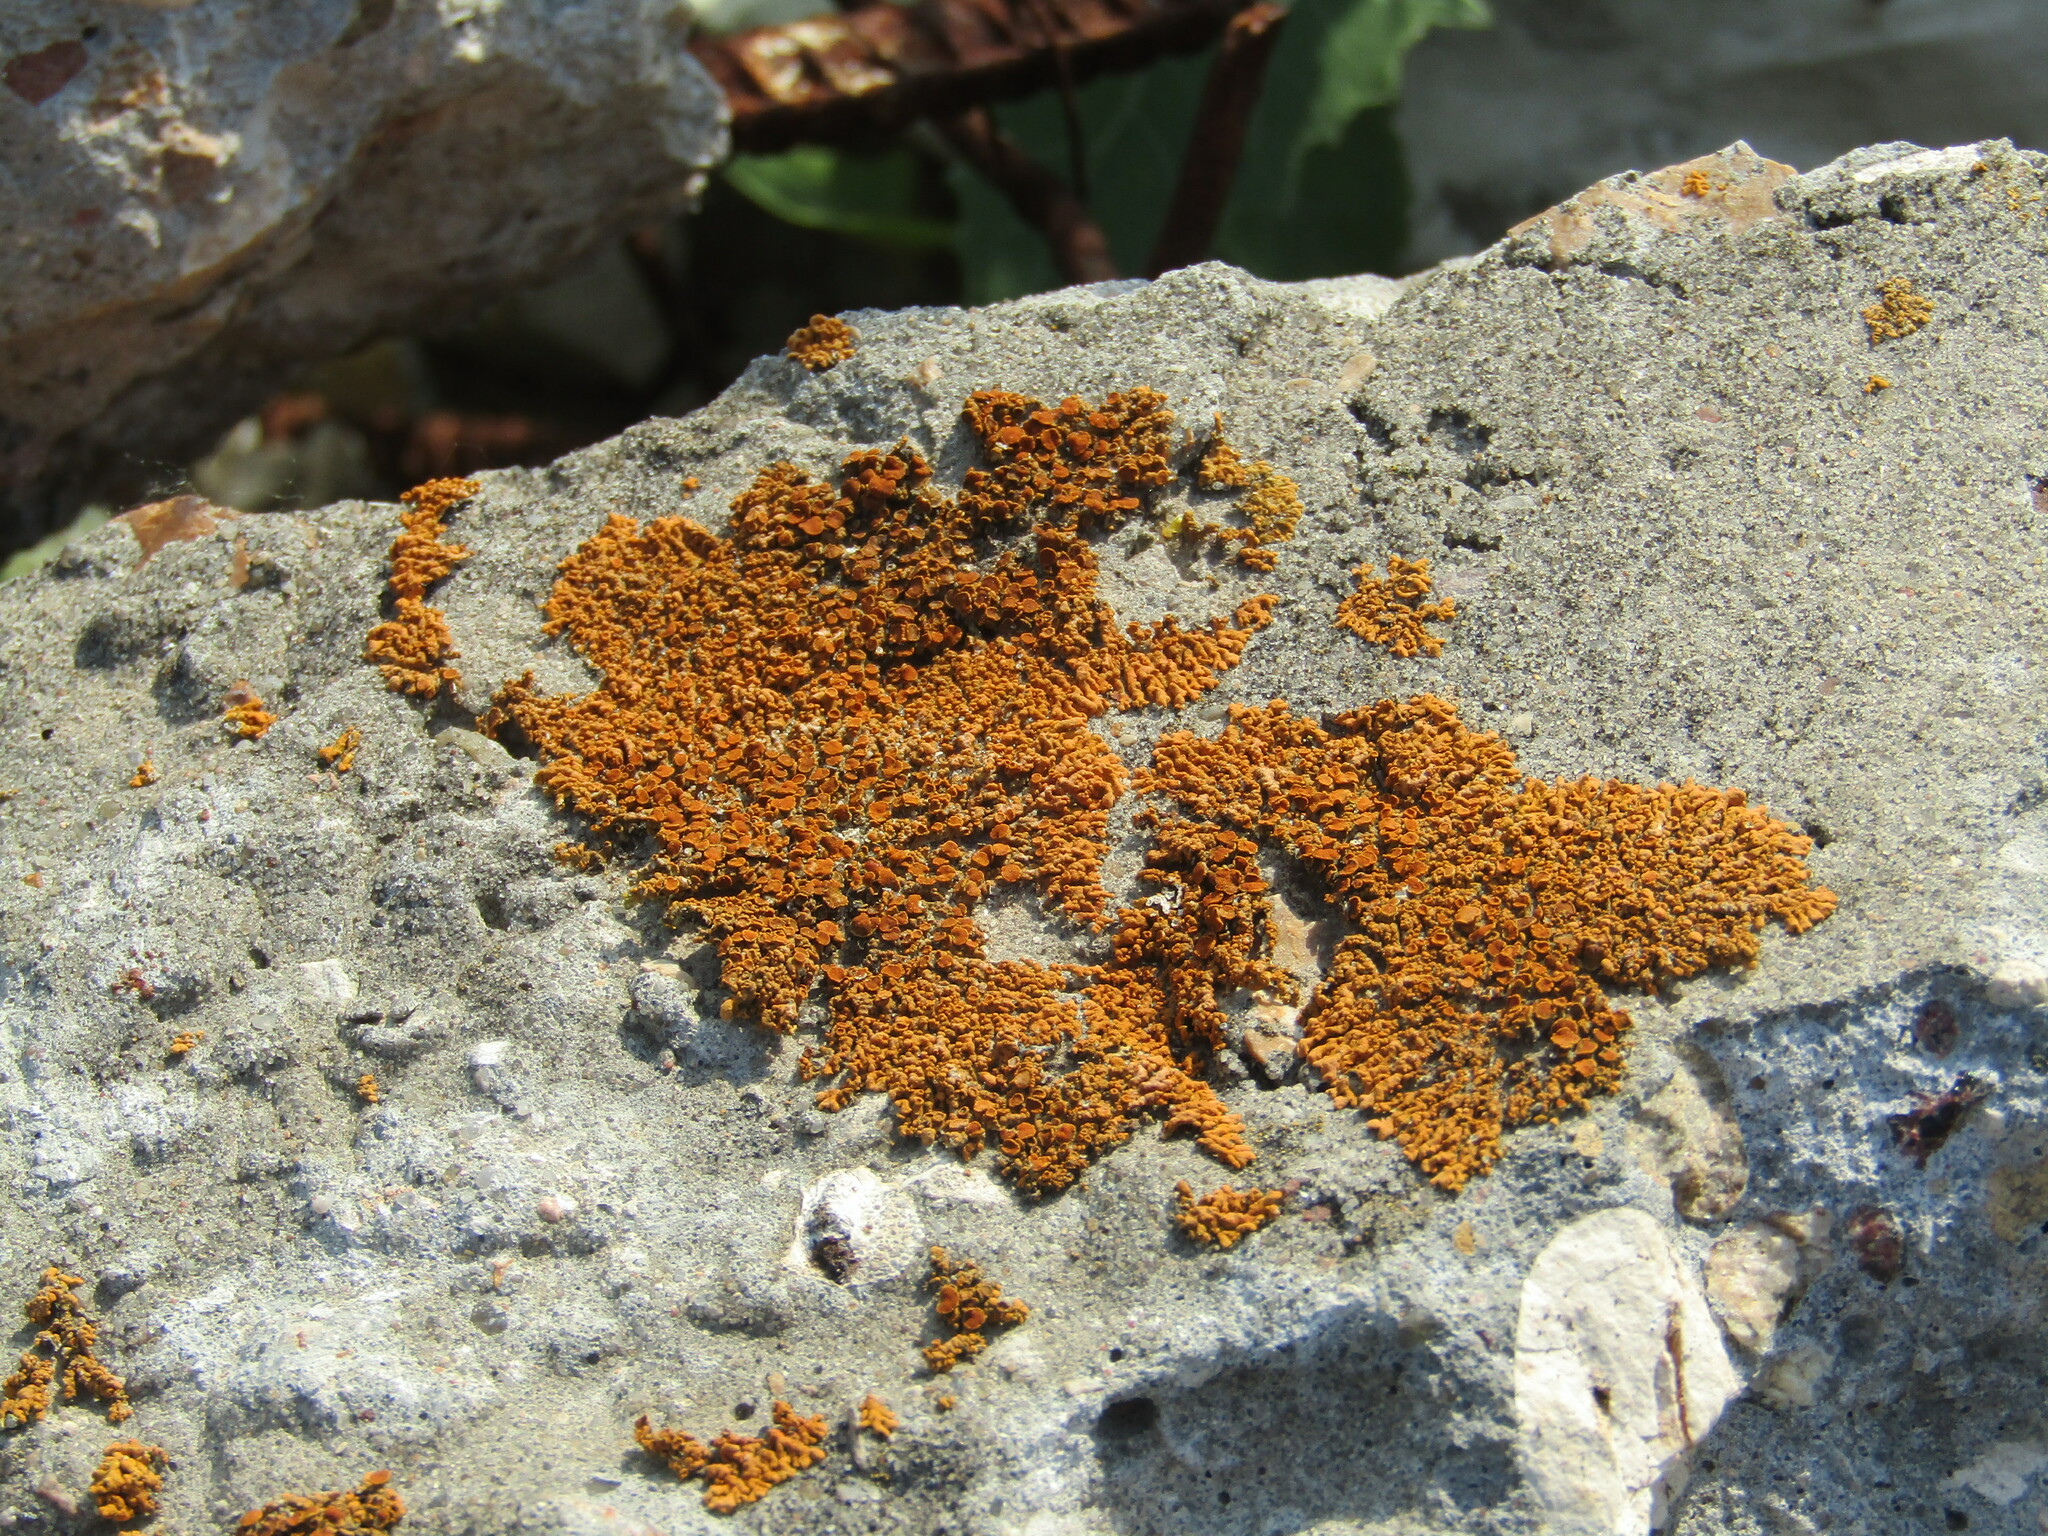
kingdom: Fungi
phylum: Ascomycota
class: Lecanoromycetes
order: Teloschistales
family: Teloschistaceae
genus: Xanthoria
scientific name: Xanthoria elegans
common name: Elegant sunburst lichen
